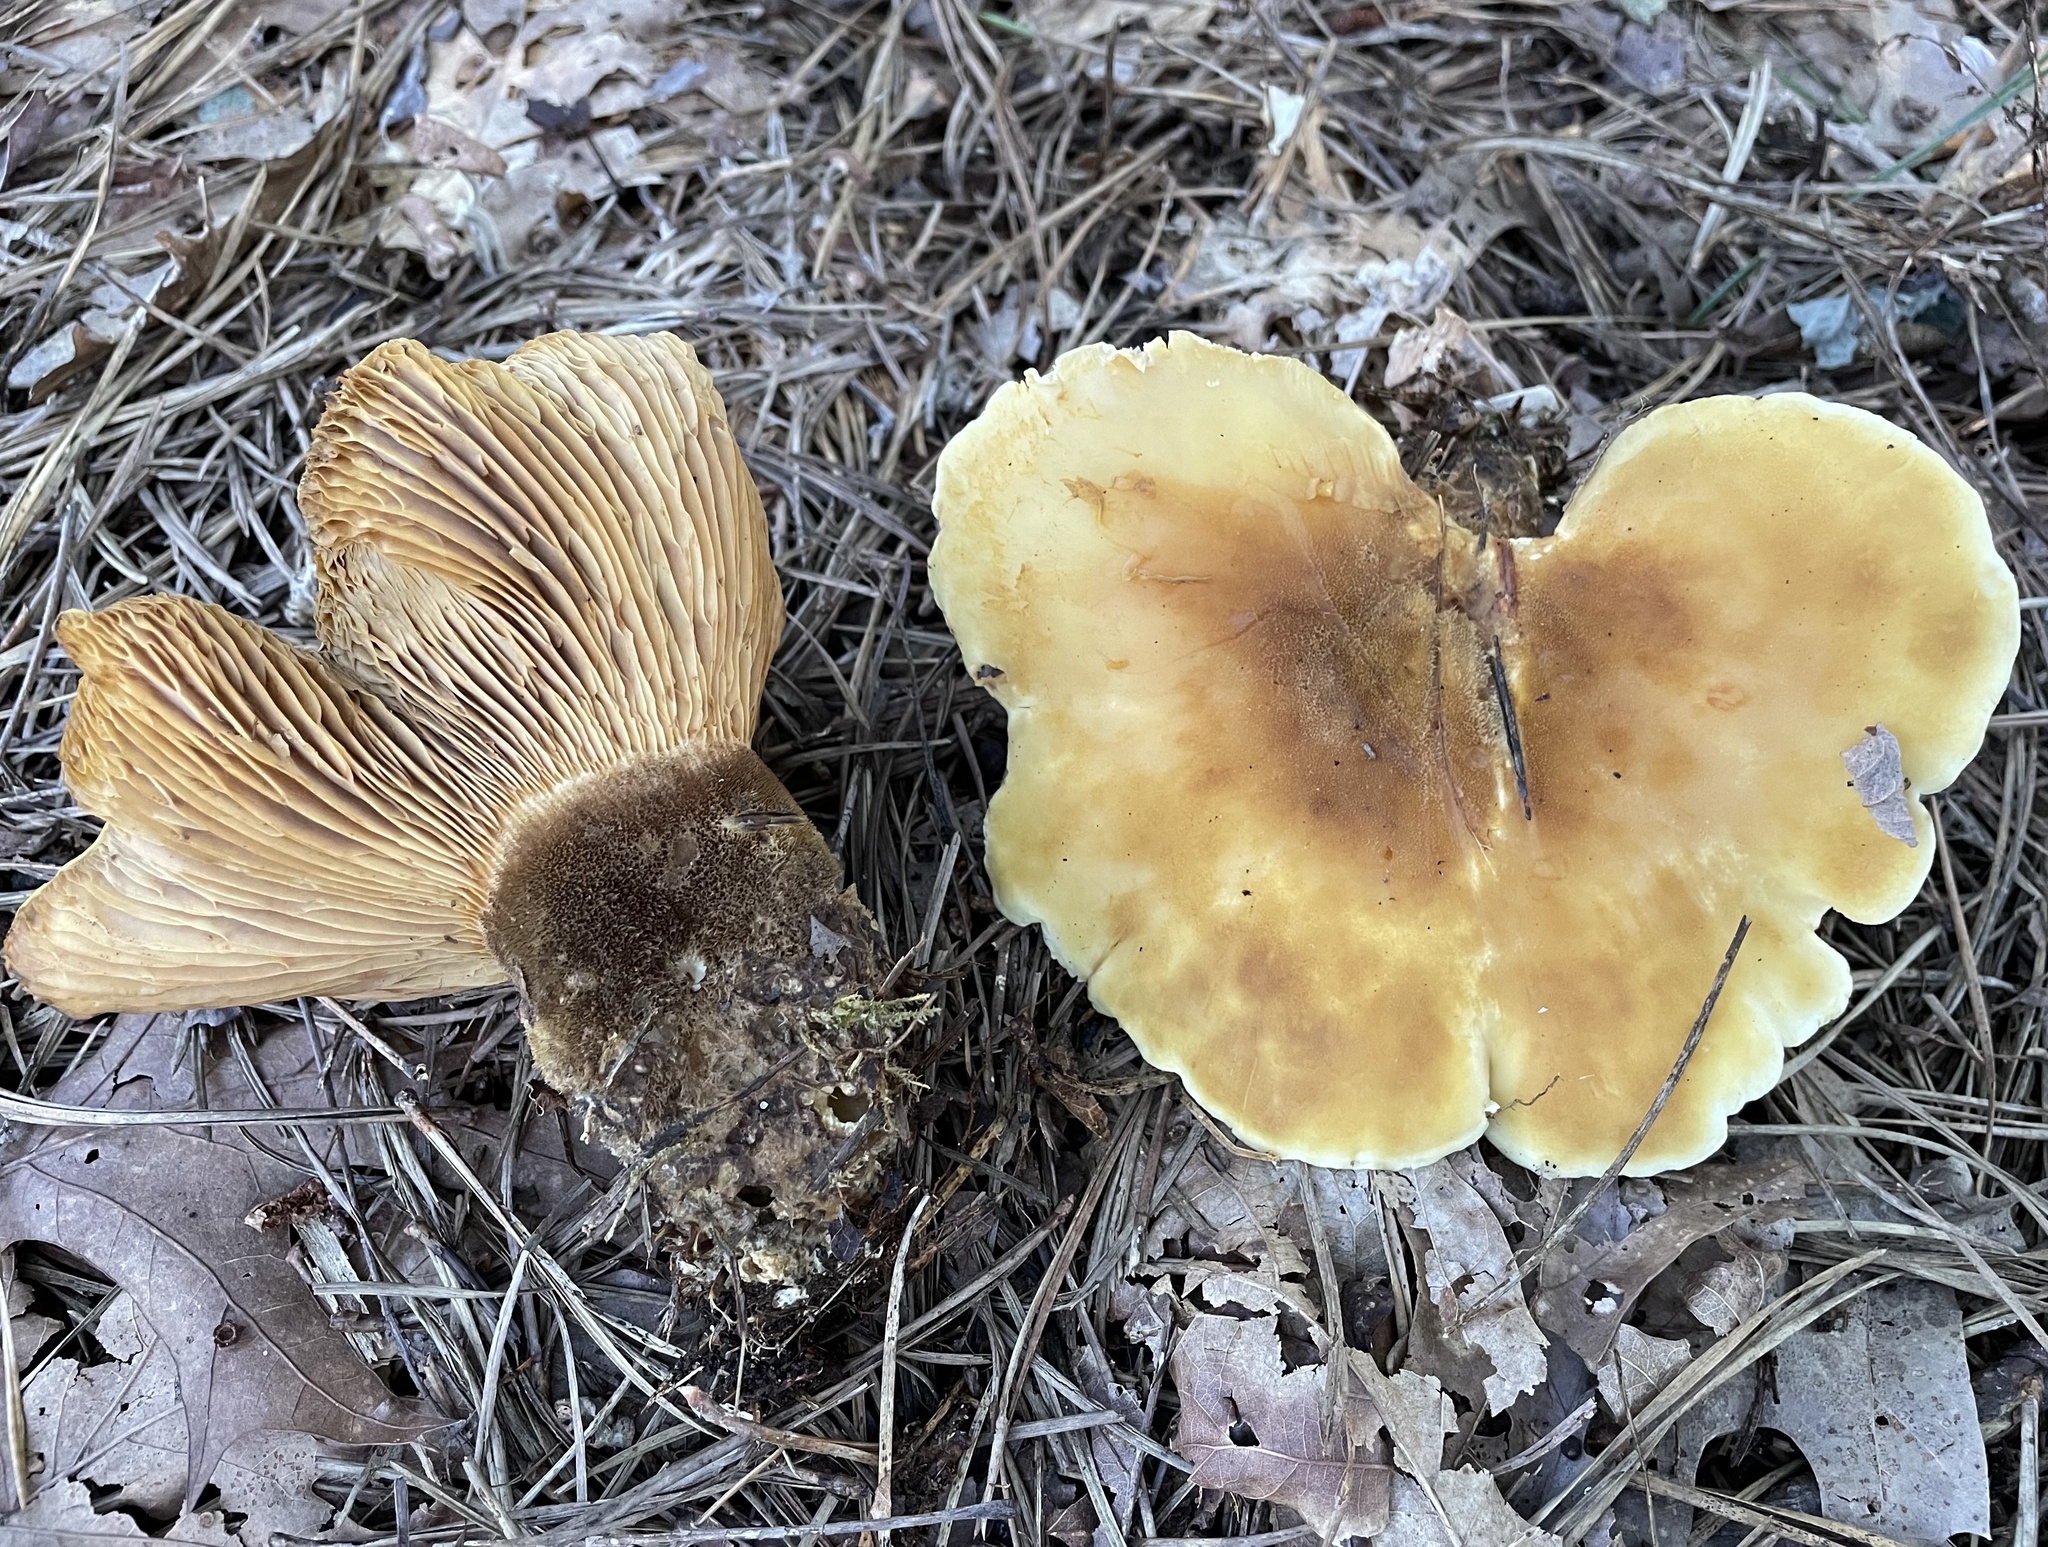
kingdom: Fungi
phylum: Basidiomycota
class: Agaricomycetes
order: Boletales
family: Tapinellaceae
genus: Tapinella
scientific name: Tapinella atrotomentosa
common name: Velvet rollrim
